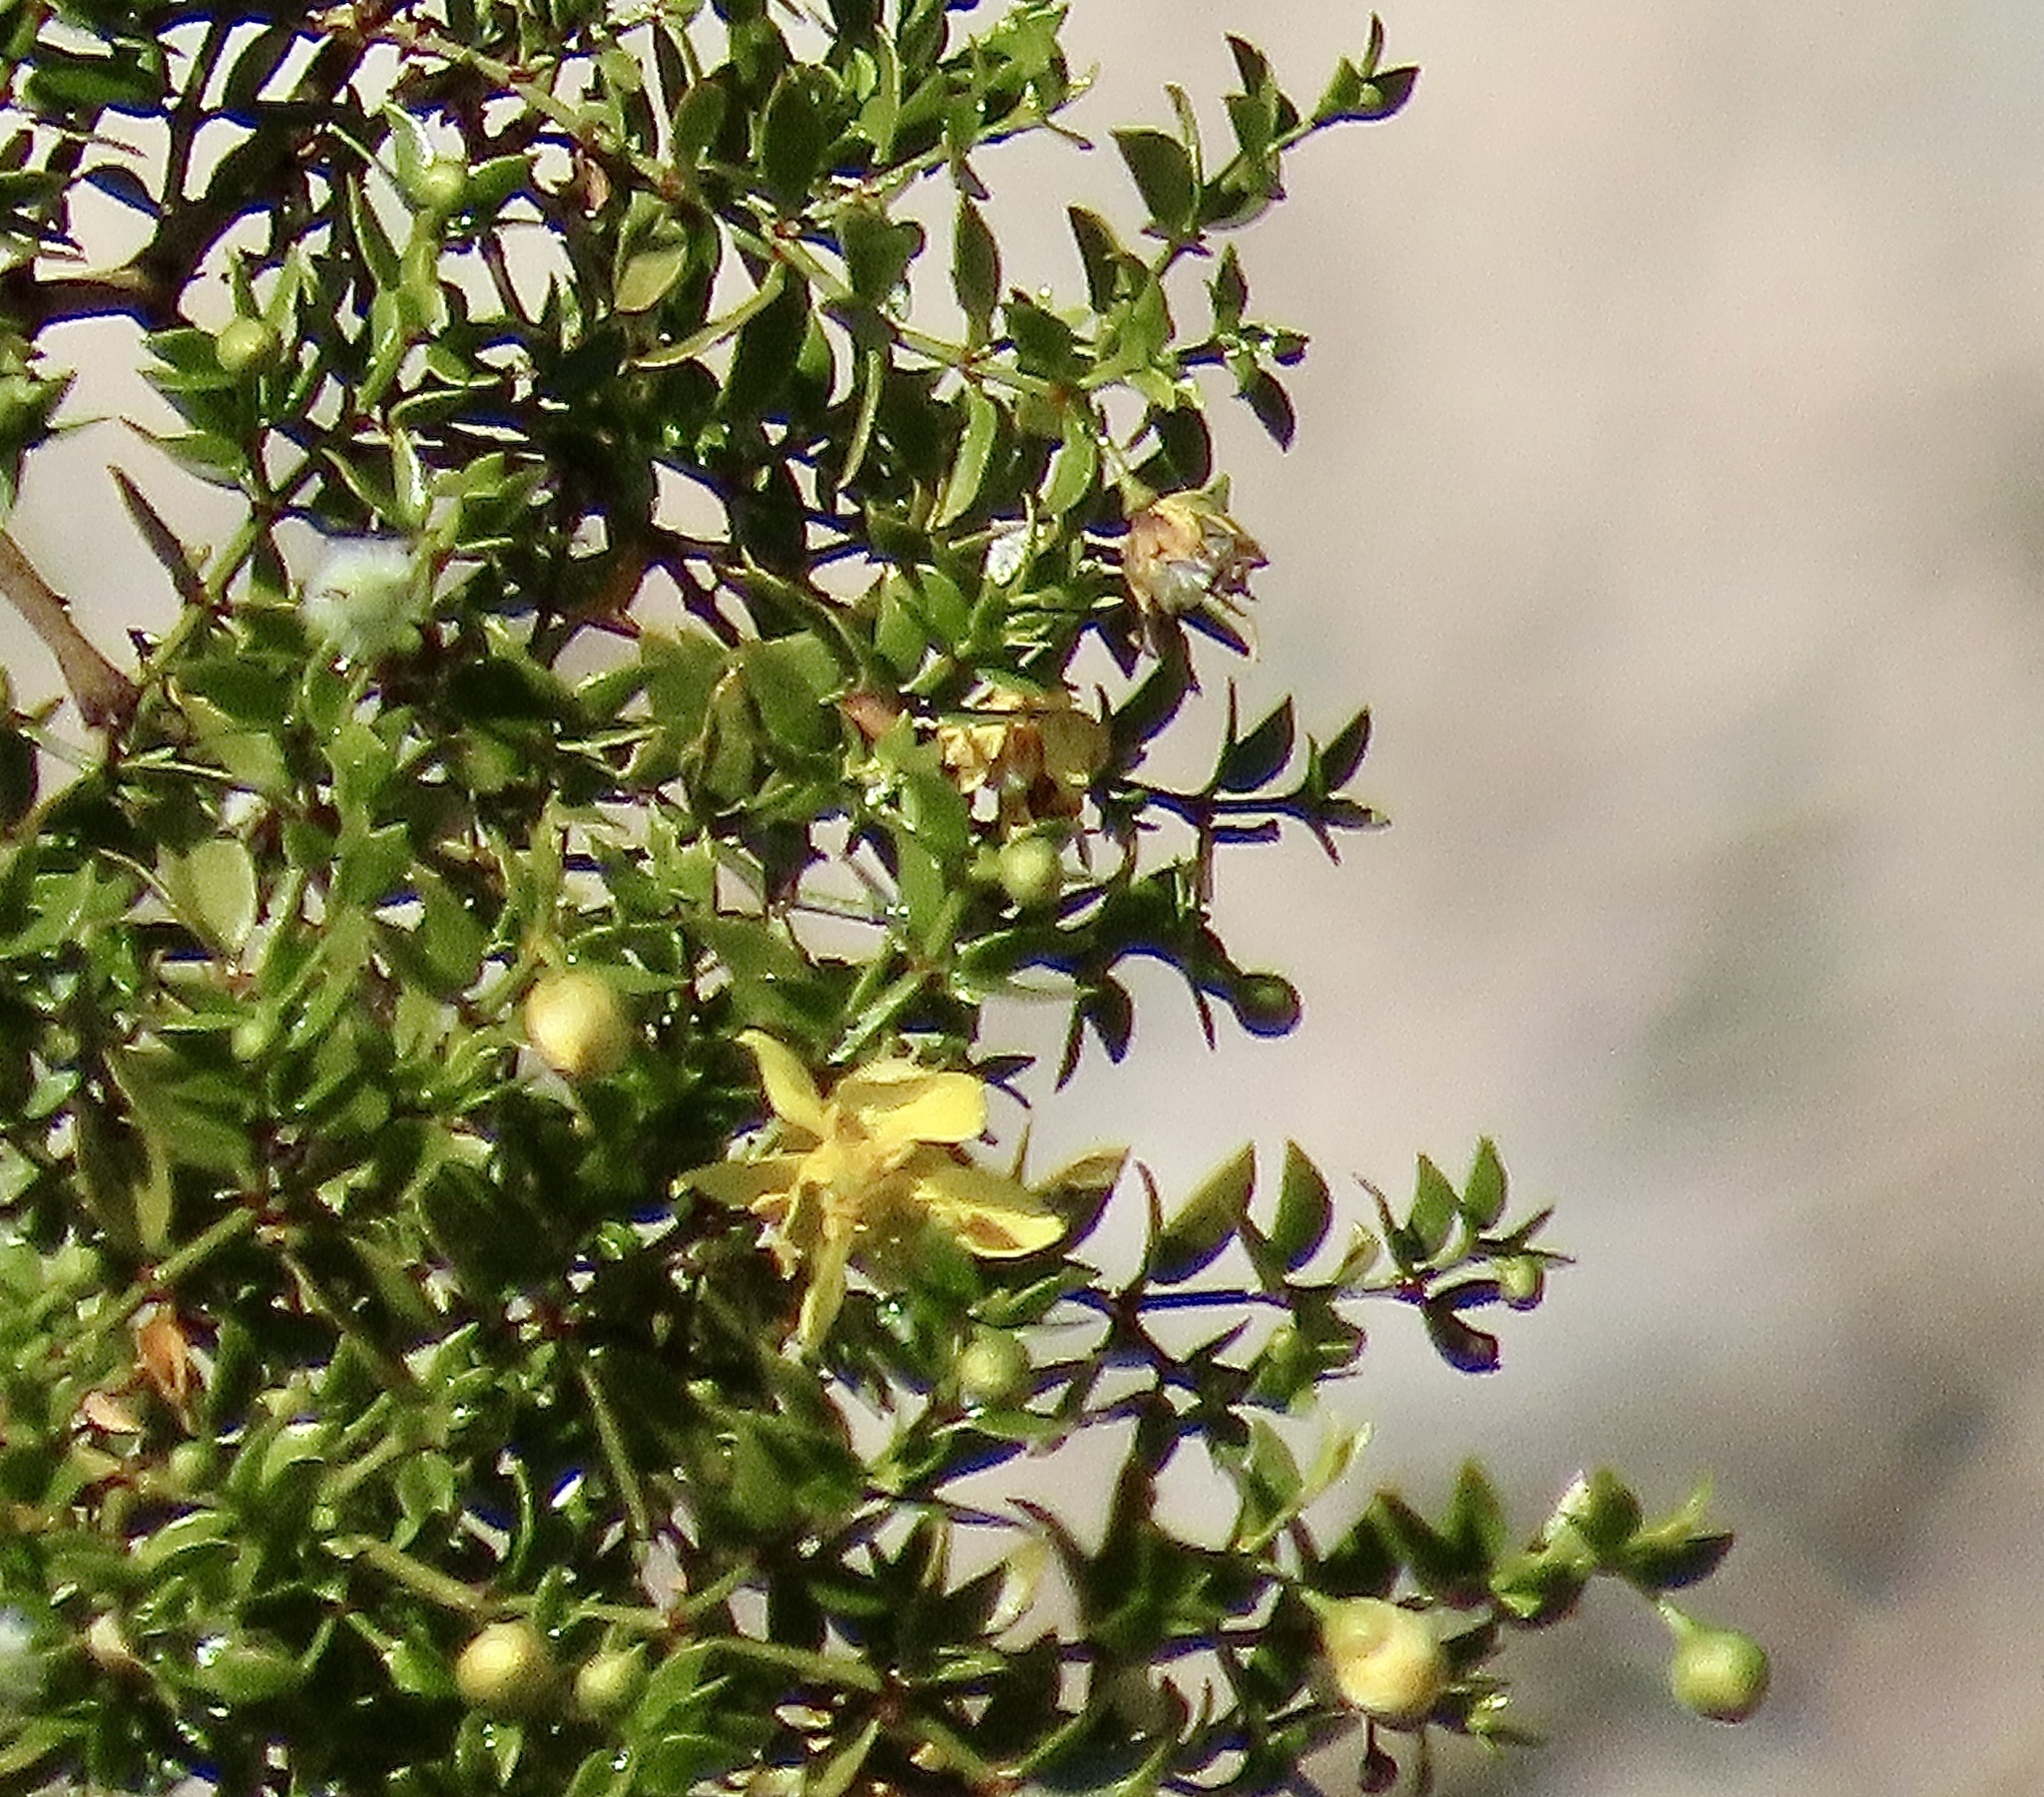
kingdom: Plantae
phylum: Tracheophyta
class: Magnoliopsida
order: Zygophyllales
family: Zygophyllaceae
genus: Larrea
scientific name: Larrea tridentata
